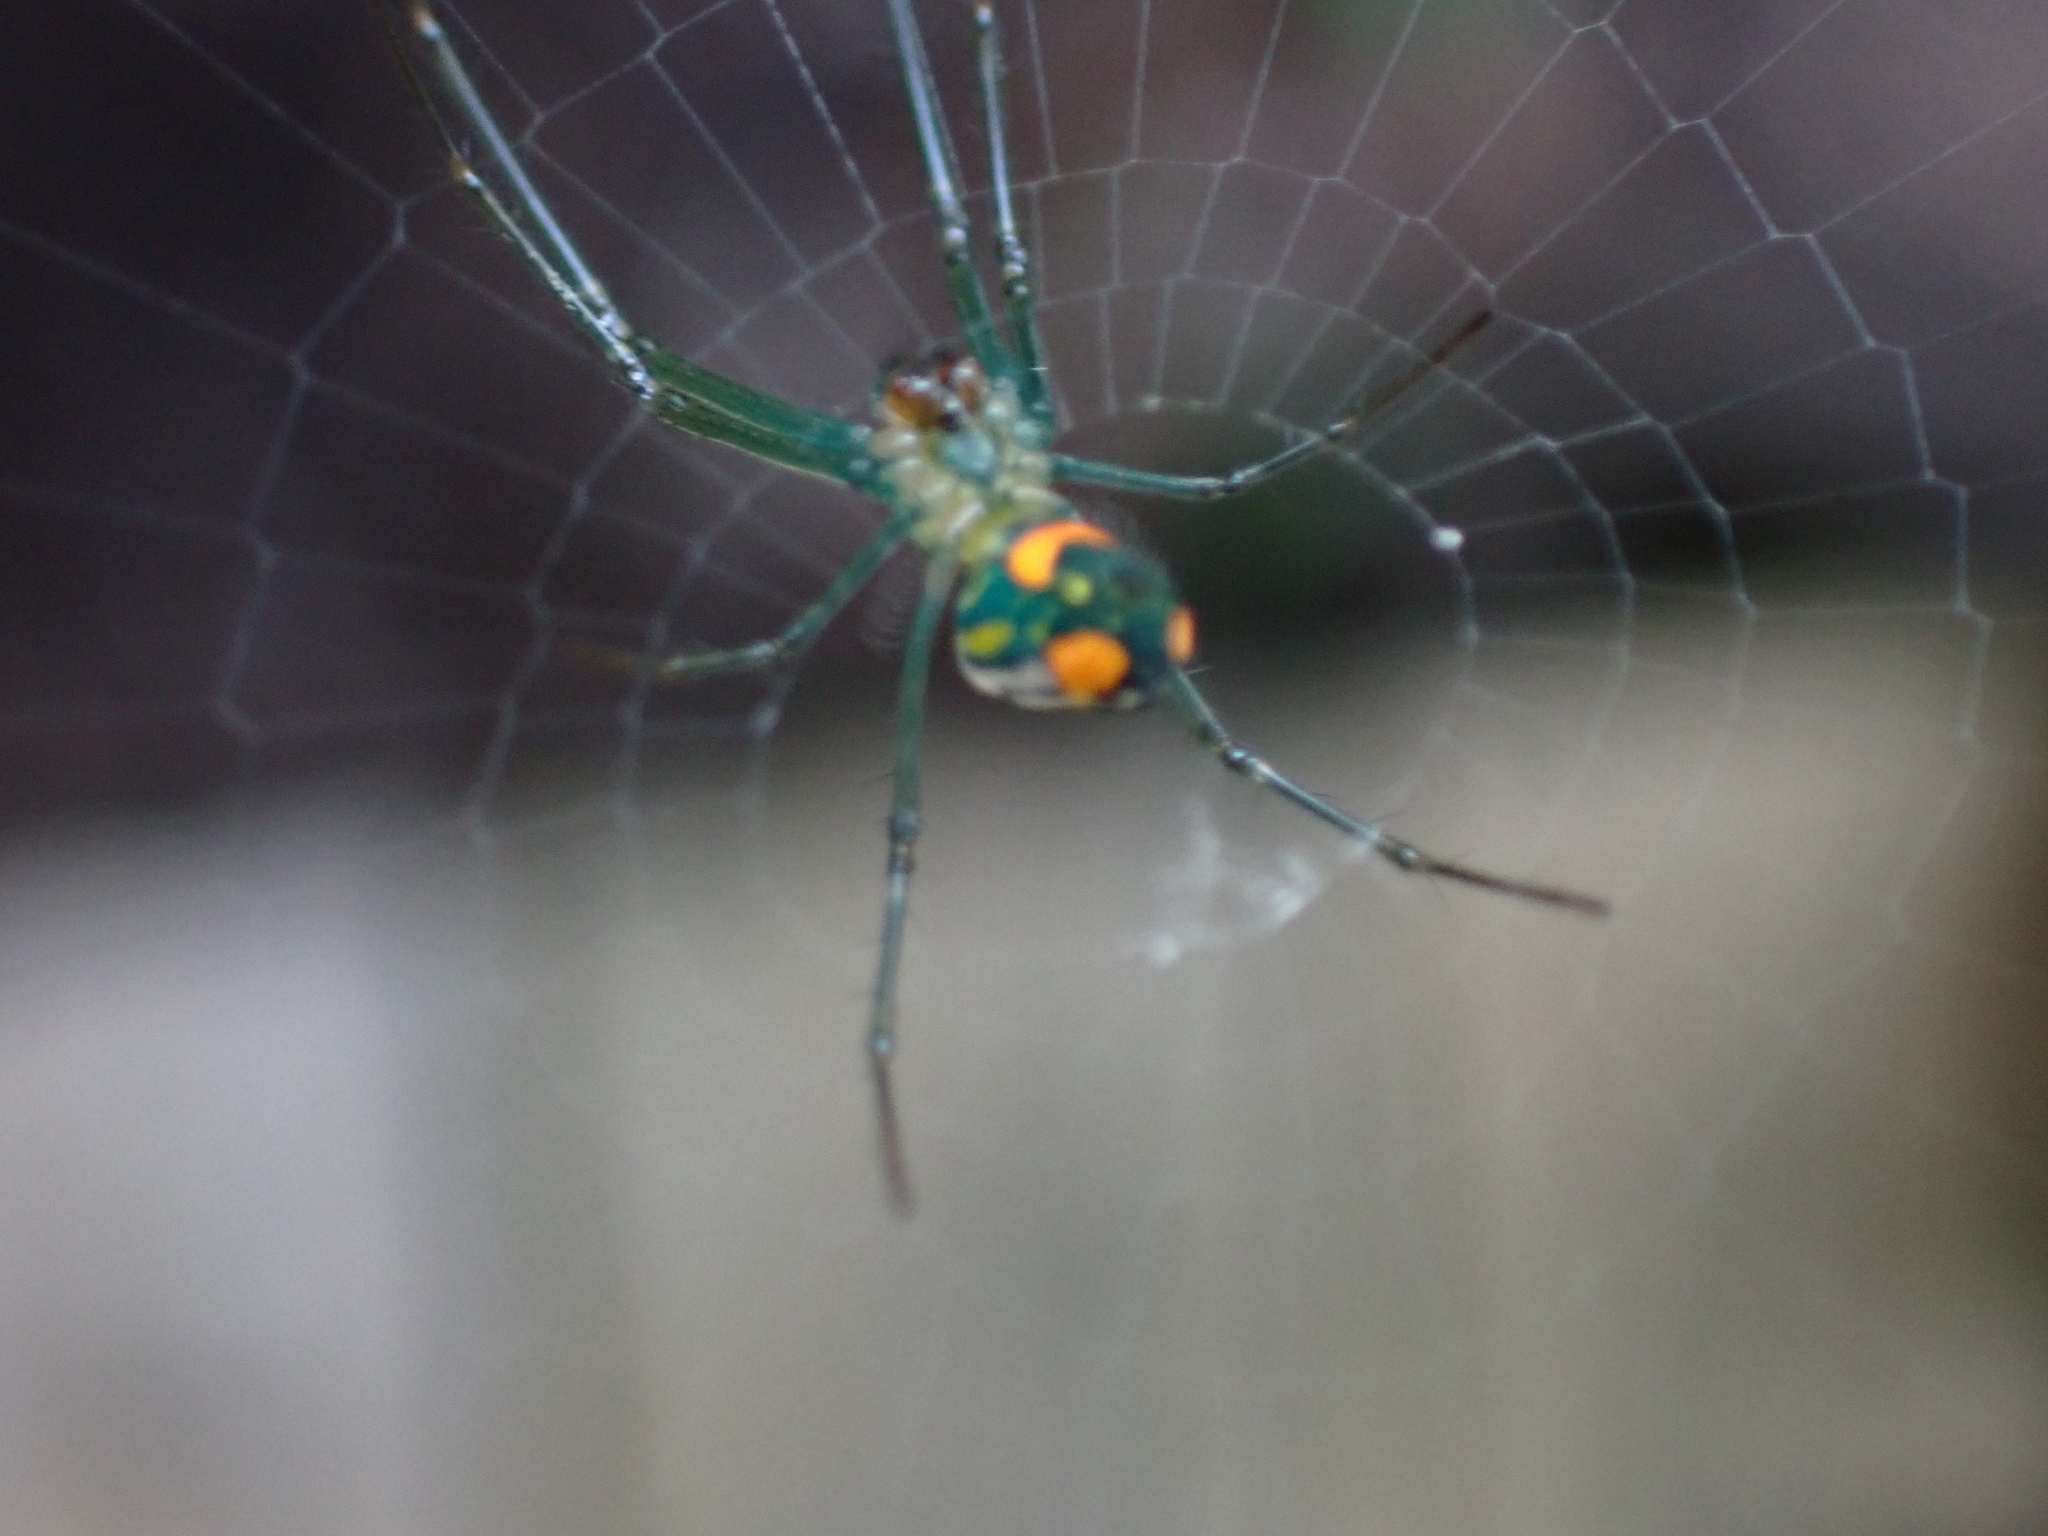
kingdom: Animalia
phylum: Arthropoda
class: Arachnida
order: Araneae
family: Tetragnathidae
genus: Leucauge
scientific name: Leucauge argyrobapta
